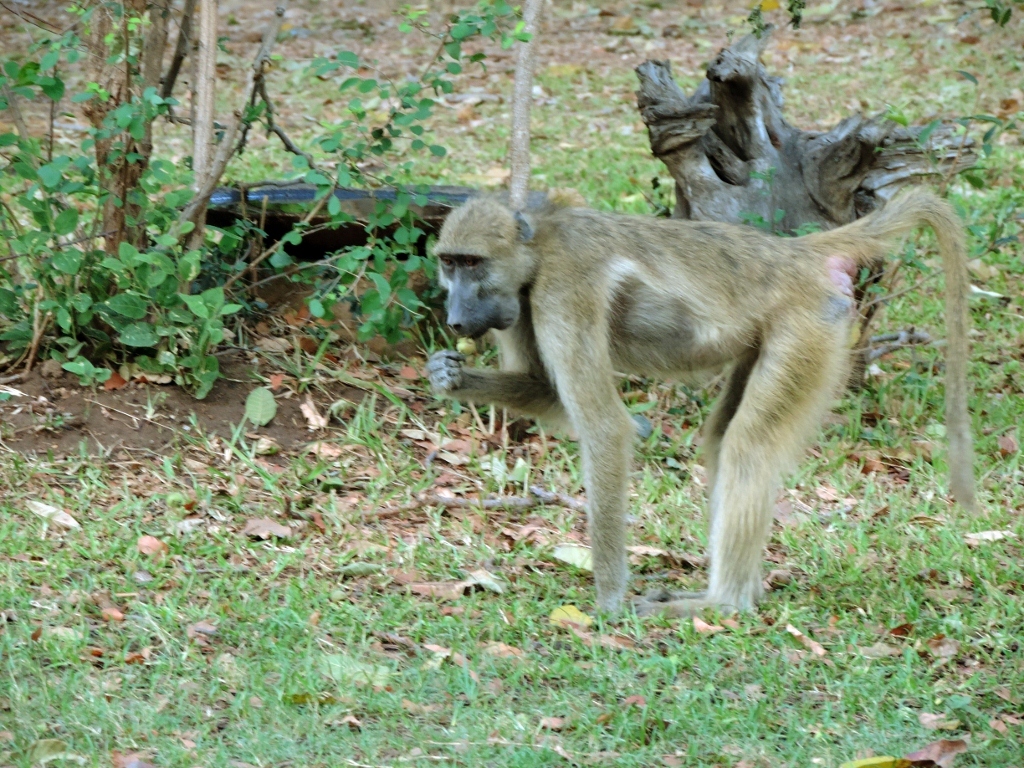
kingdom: Animalia
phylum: Chordata
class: Mammalia
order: Primates
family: Cercopithecidae
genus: Papio
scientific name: Papio ursinus
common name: Chacma baboon
